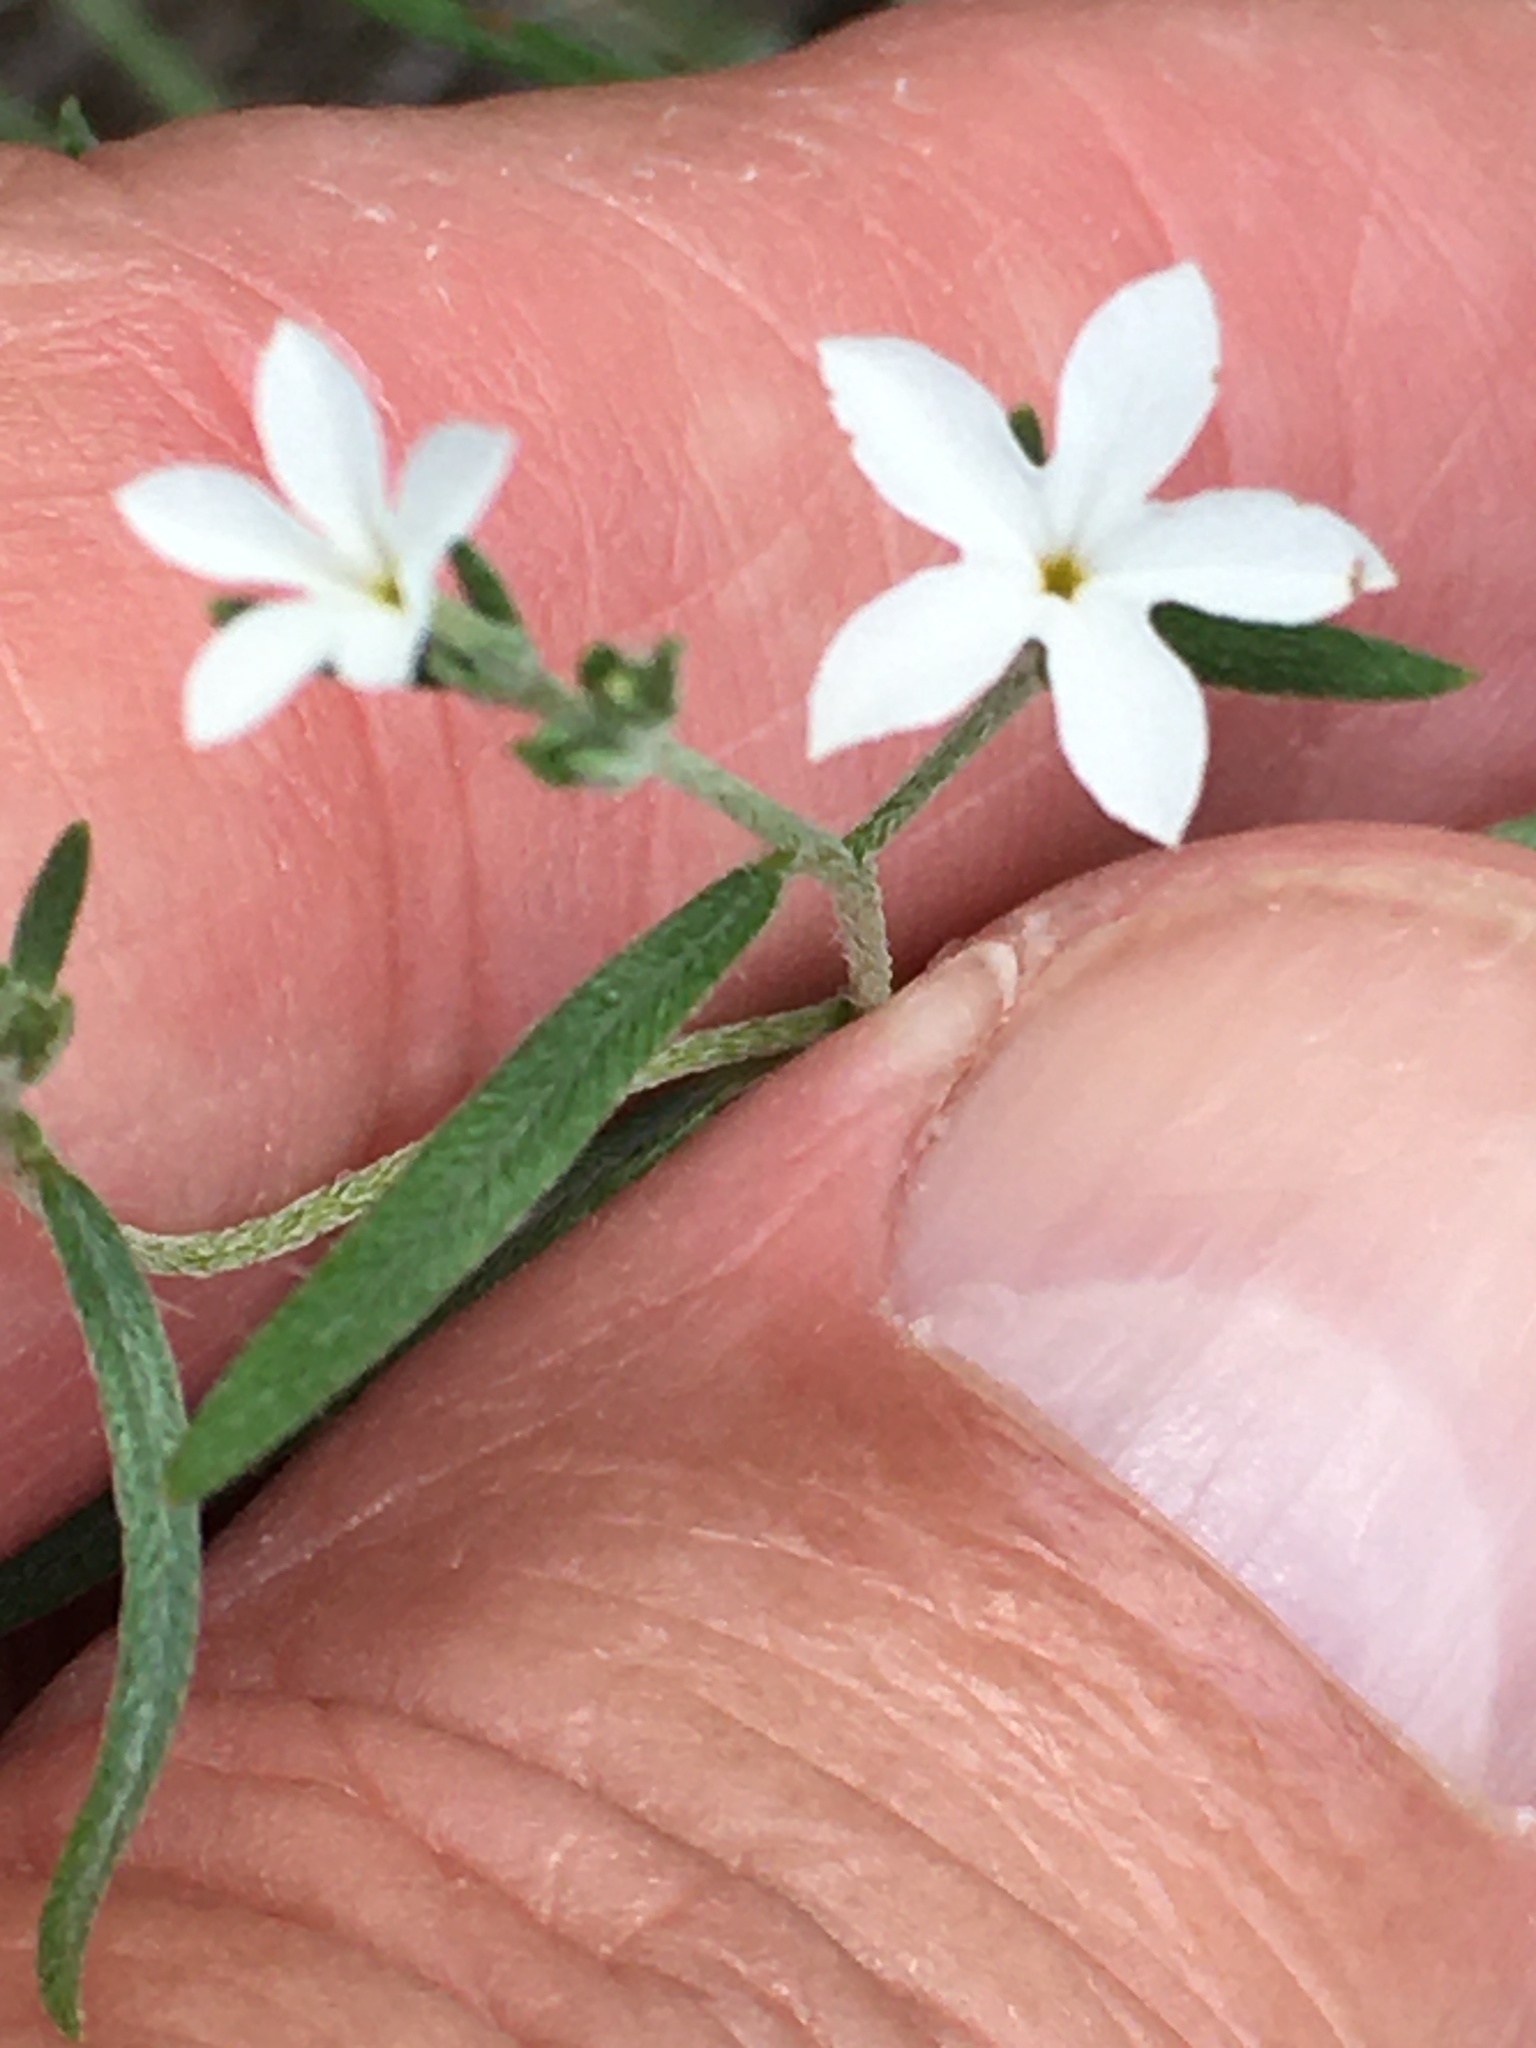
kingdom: Plantae
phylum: Tracheophyta
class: Magnoliopsida
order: Boraginales
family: Heliotropiaceae
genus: Euploca
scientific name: Euploca tenella
